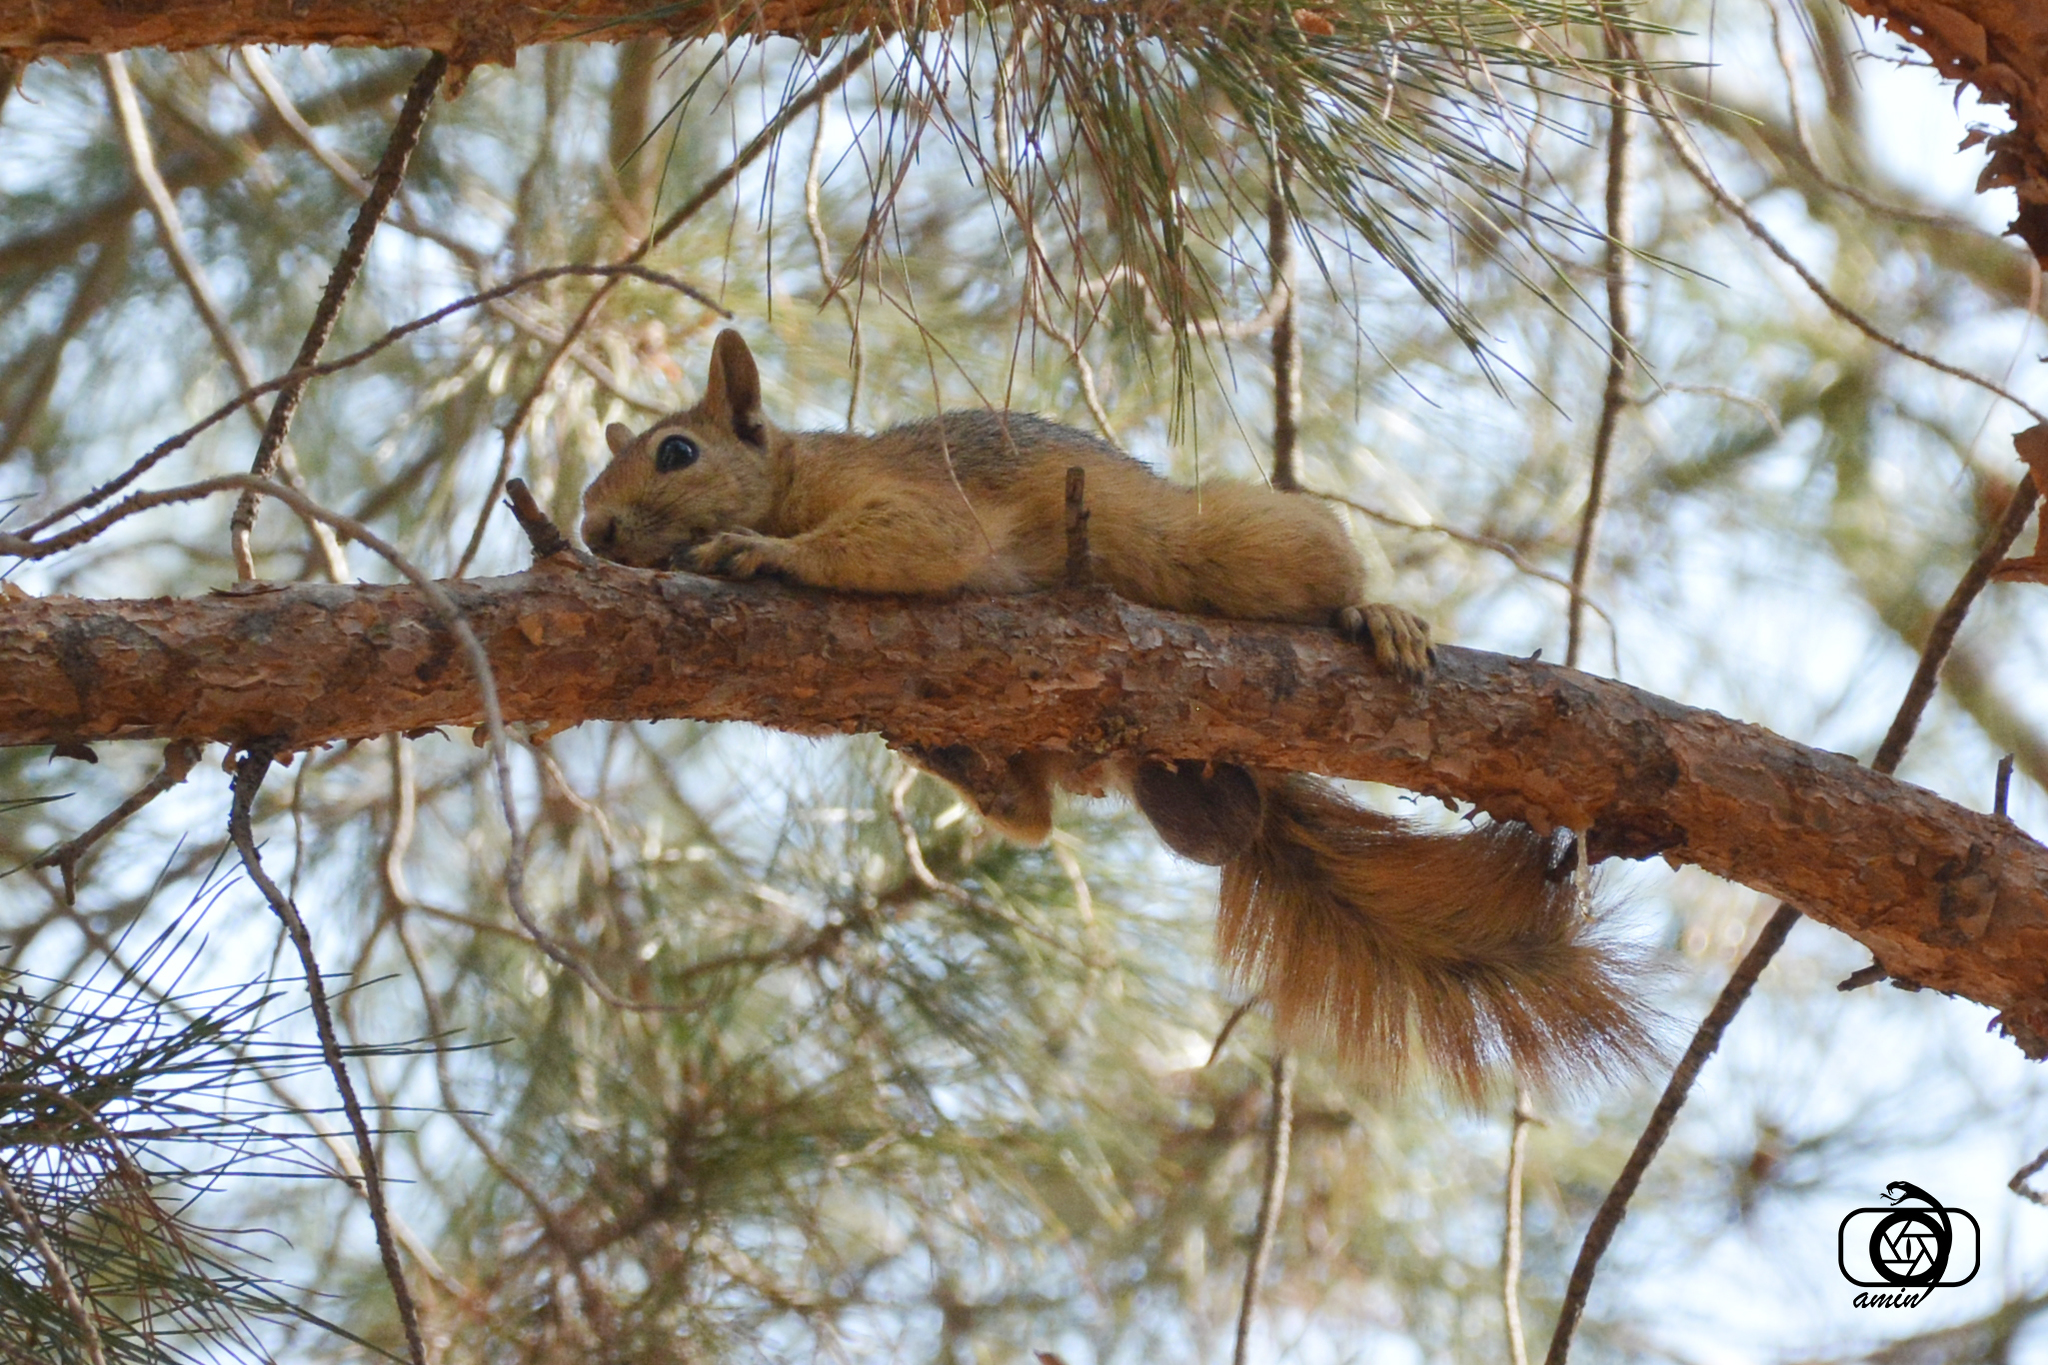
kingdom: Animalia
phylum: Chordata
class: Mammalia
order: Rodentia
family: Sciuridae
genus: Sciurus
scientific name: Sciurus anomalus
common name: Caucasian squirrel
